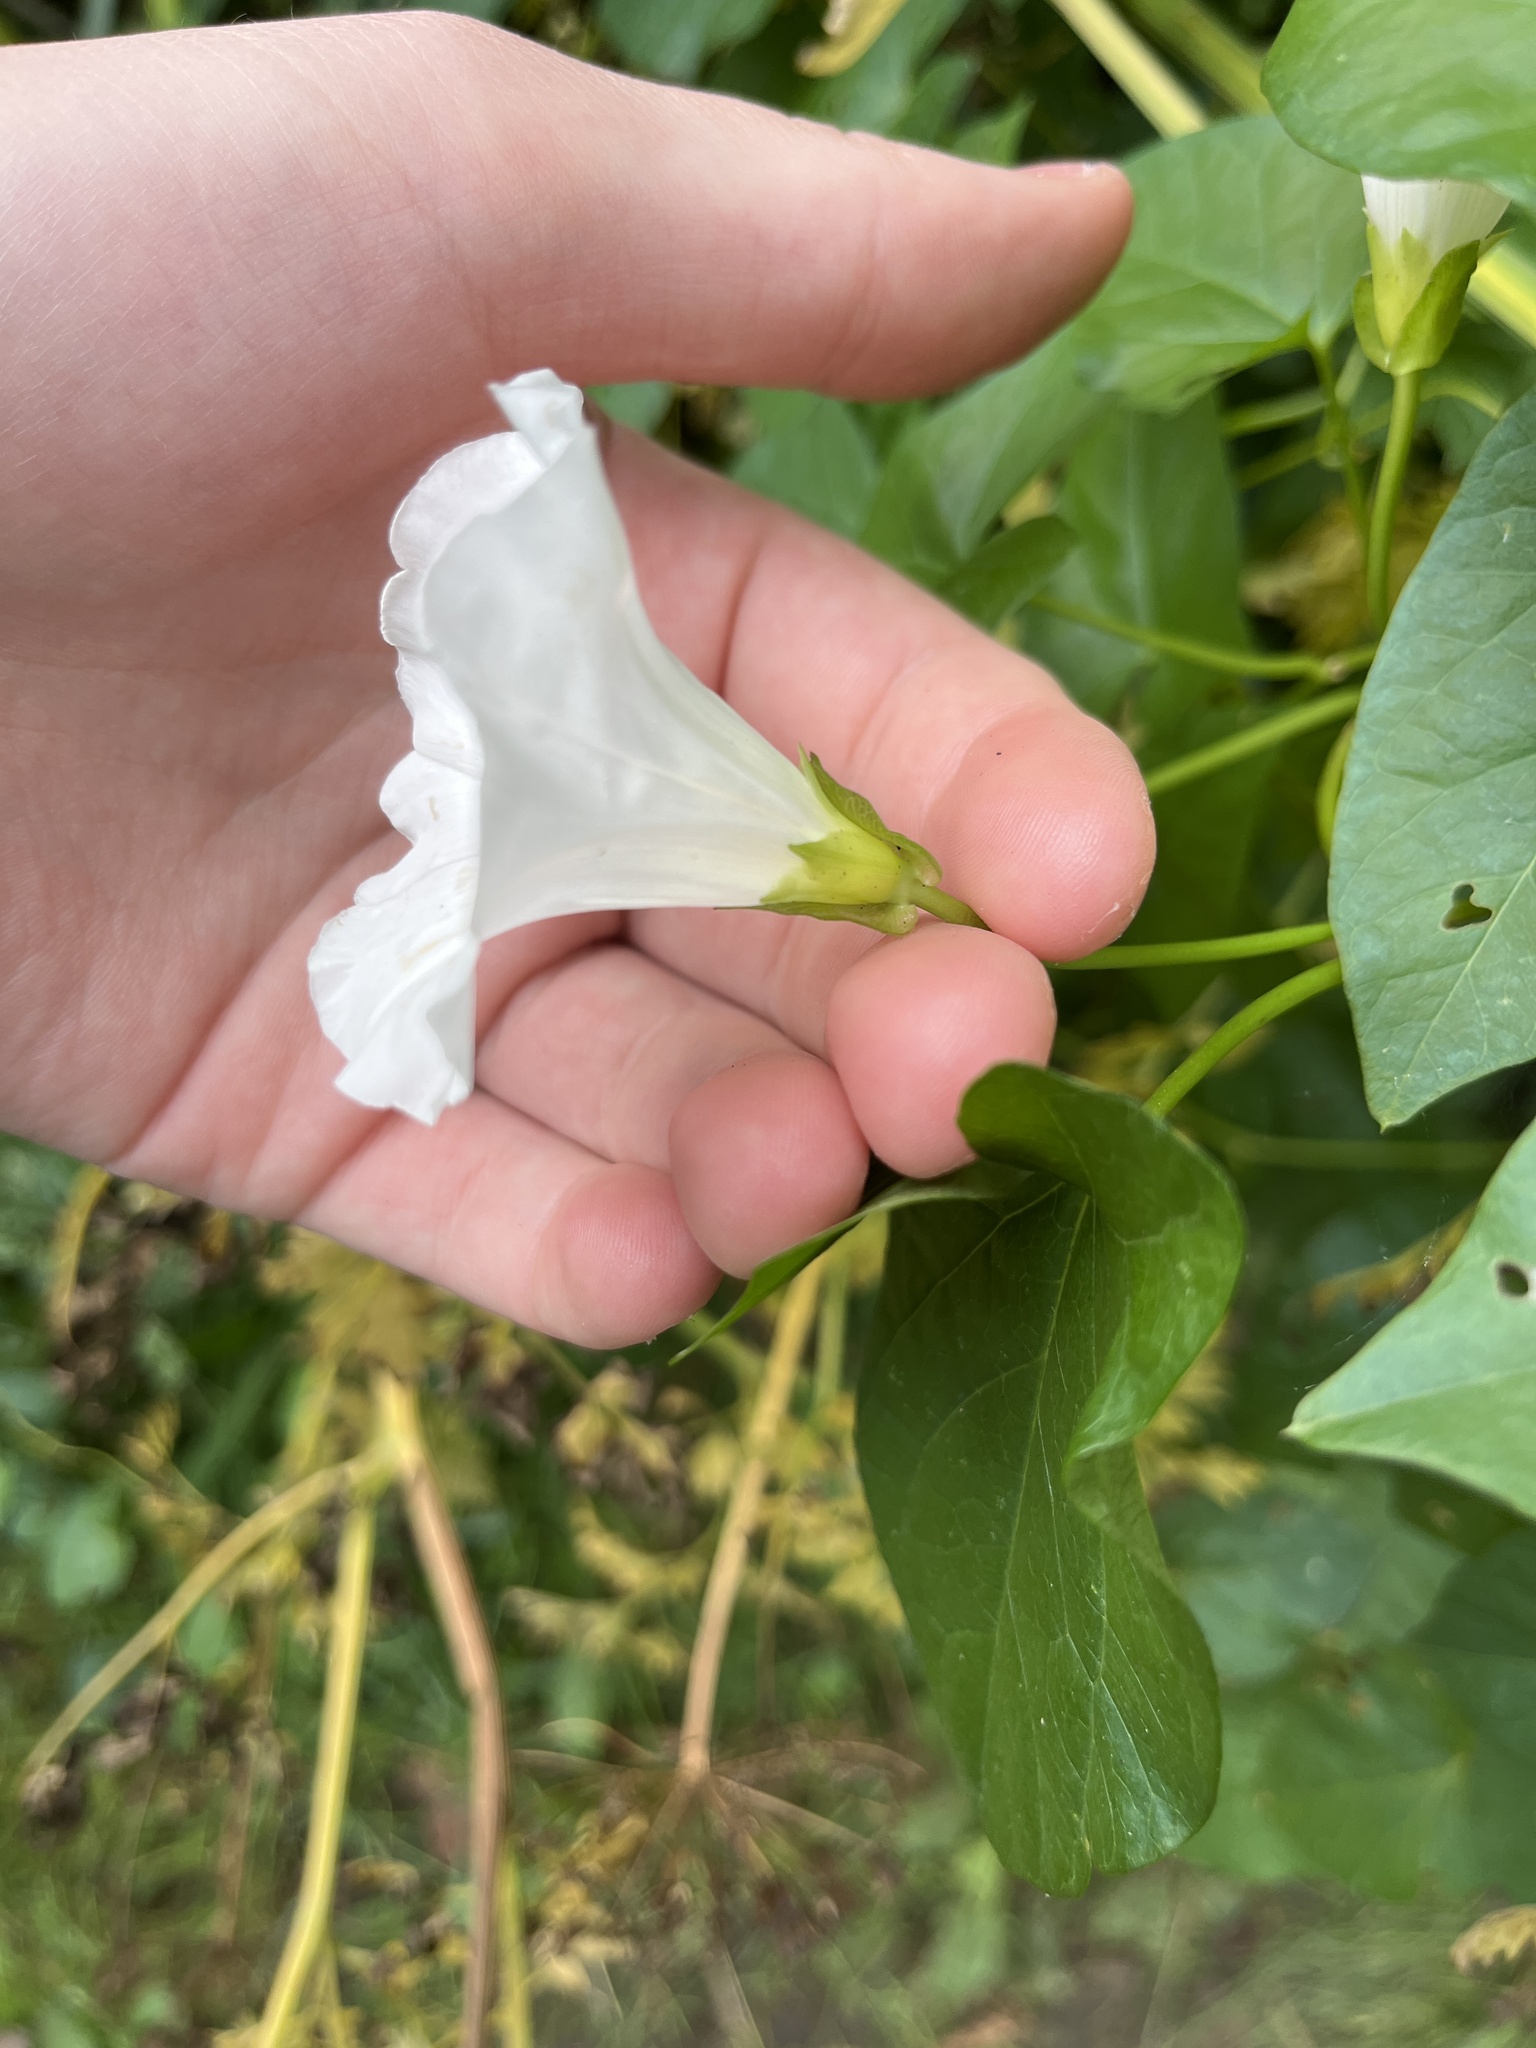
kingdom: Plantae
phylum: Tracheophyta
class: Magnoliopsida
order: Solanales
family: Convolvulaceae
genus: Calystegia
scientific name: Calystegia sepium
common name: Hedge bindweed
